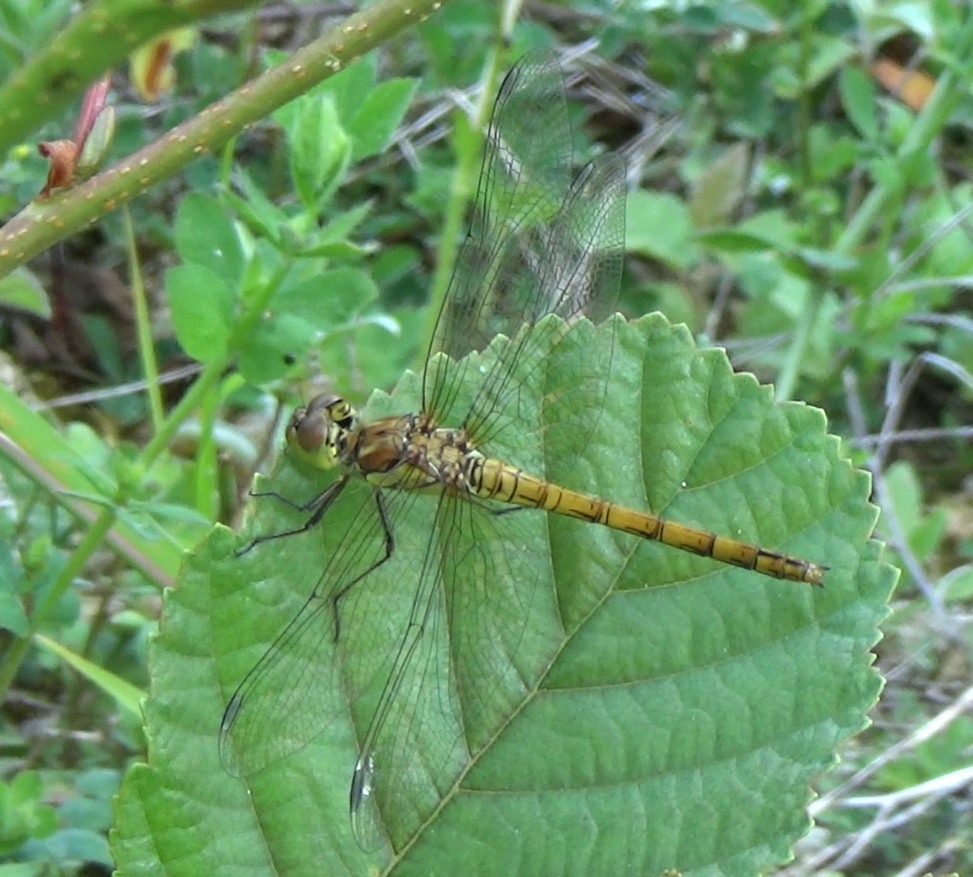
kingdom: Animalia
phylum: Arthropoda
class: Insecta
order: Odonata
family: Libellulidae
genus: Sympetrum
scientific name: Sympetrum striolatum
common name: Common darter
